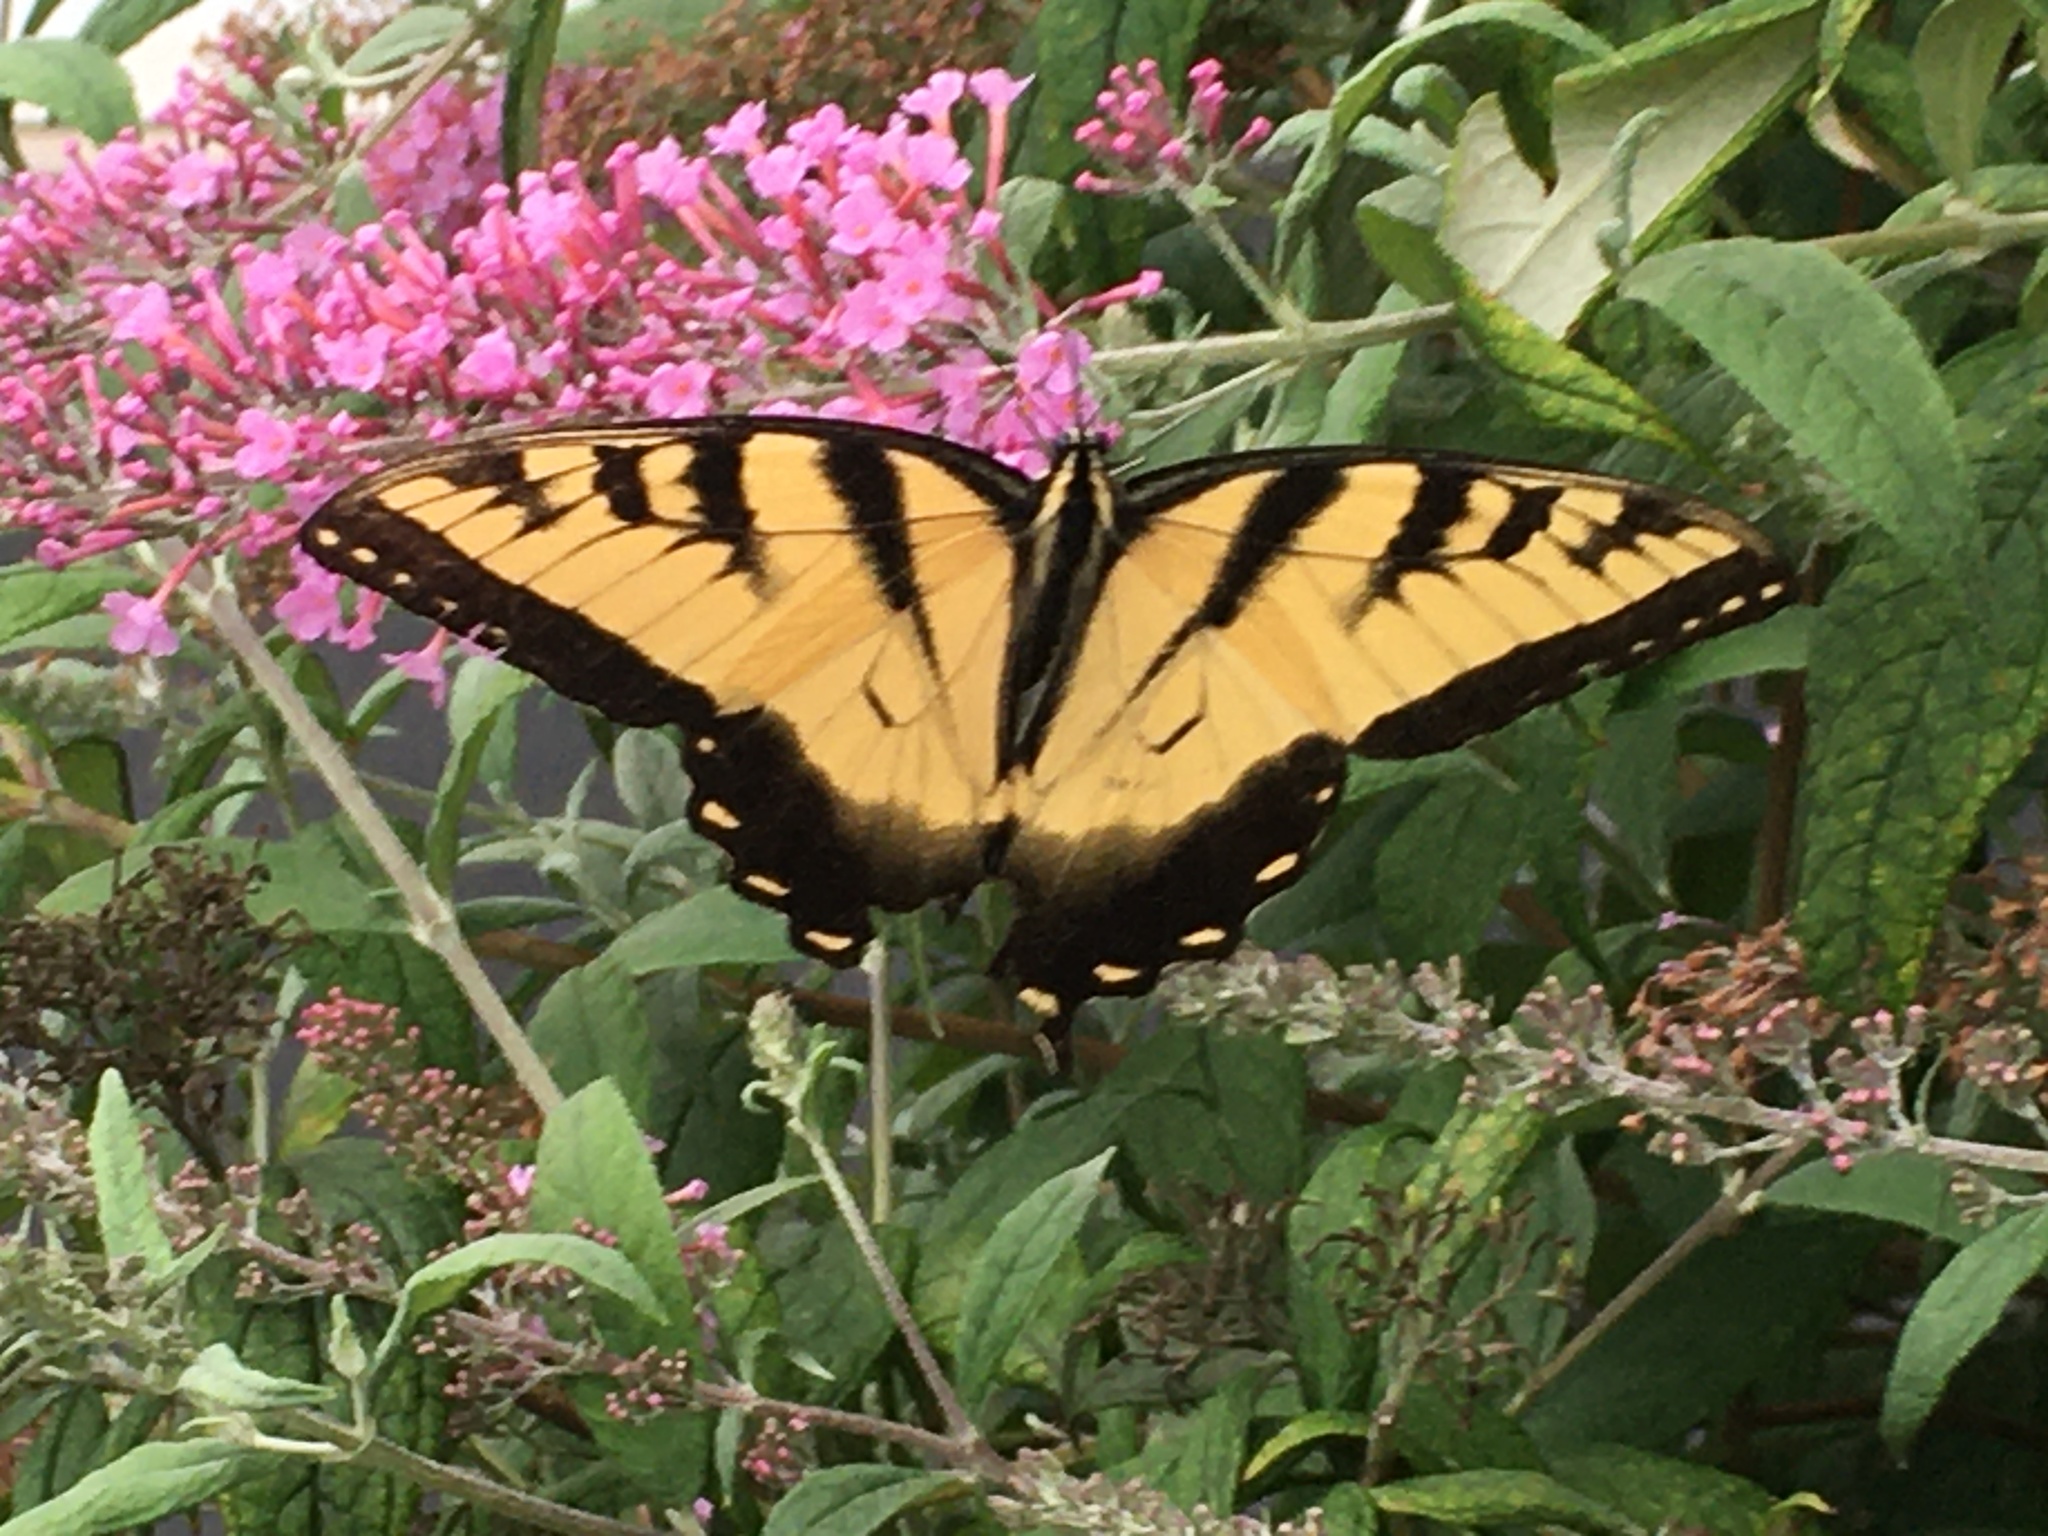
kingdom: Animalia
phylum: Arthropoda
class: Insecta
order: Lepidoptera
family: Papilionidae
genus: Papilio
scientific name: Papilio glaucus
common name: Tiger swallowtail
